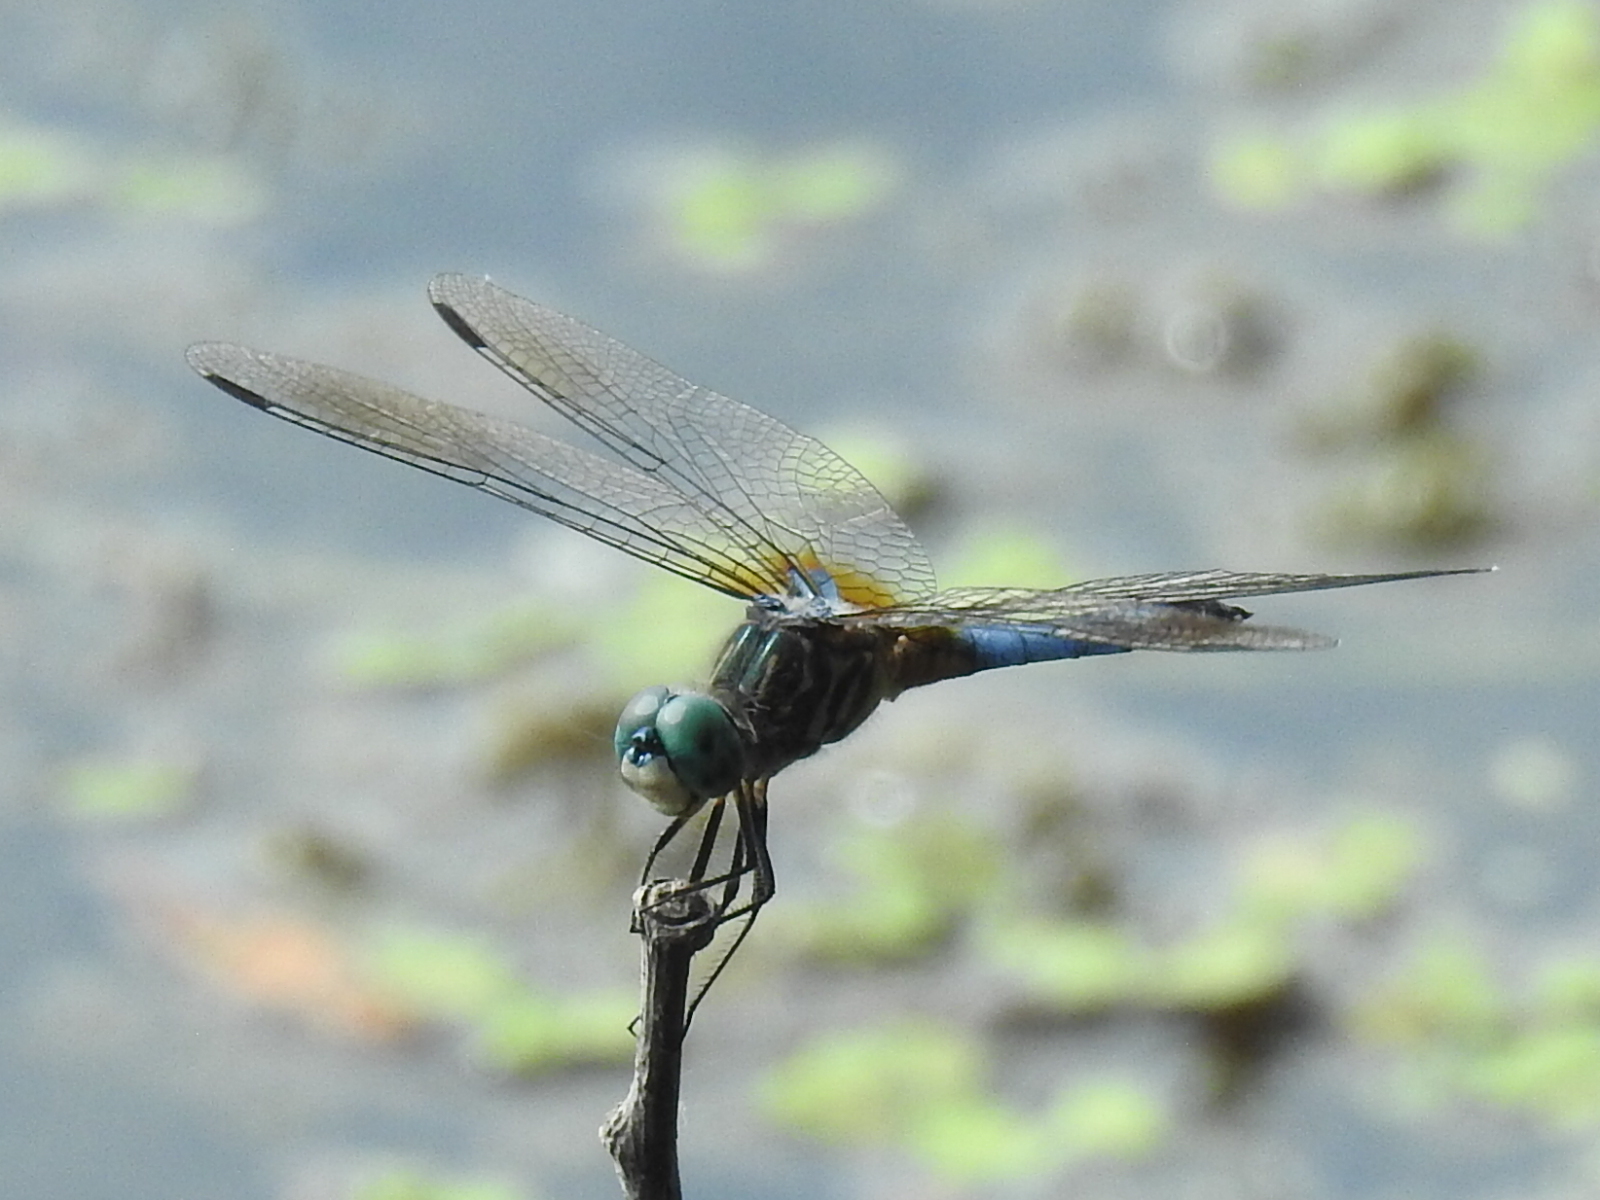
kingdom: Animalia
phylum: Arthropoda
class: Insecta
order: Odonata
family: Libellulidae
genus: Pachydiplax
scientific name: Pachydiplax longipennis
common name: Blue dasher
